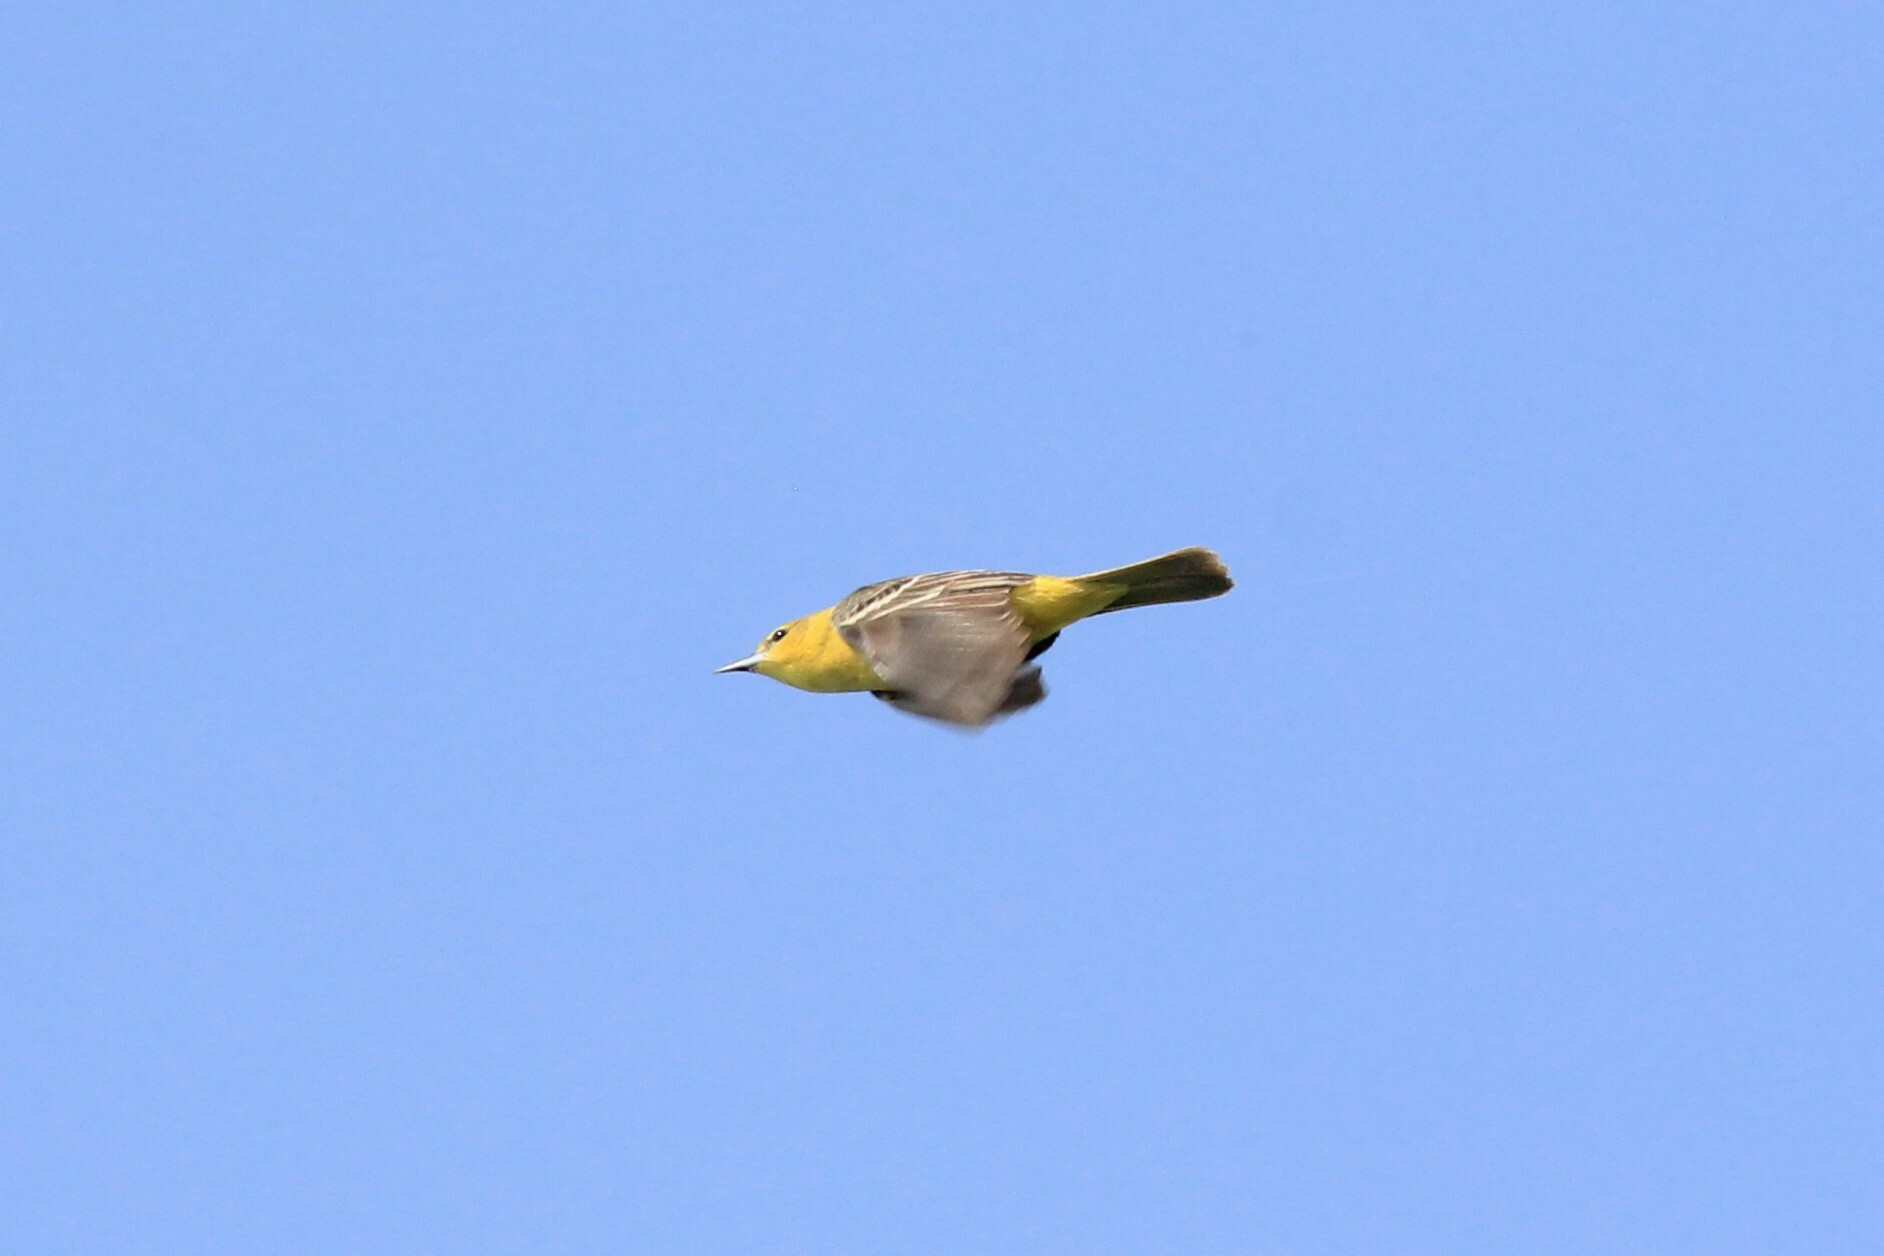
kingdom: Animalia
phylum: Chordata
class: Aves
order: Passeriformes
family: Icteridae
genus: Icterus
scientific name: Icterus spurius
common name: Orchard oriole
